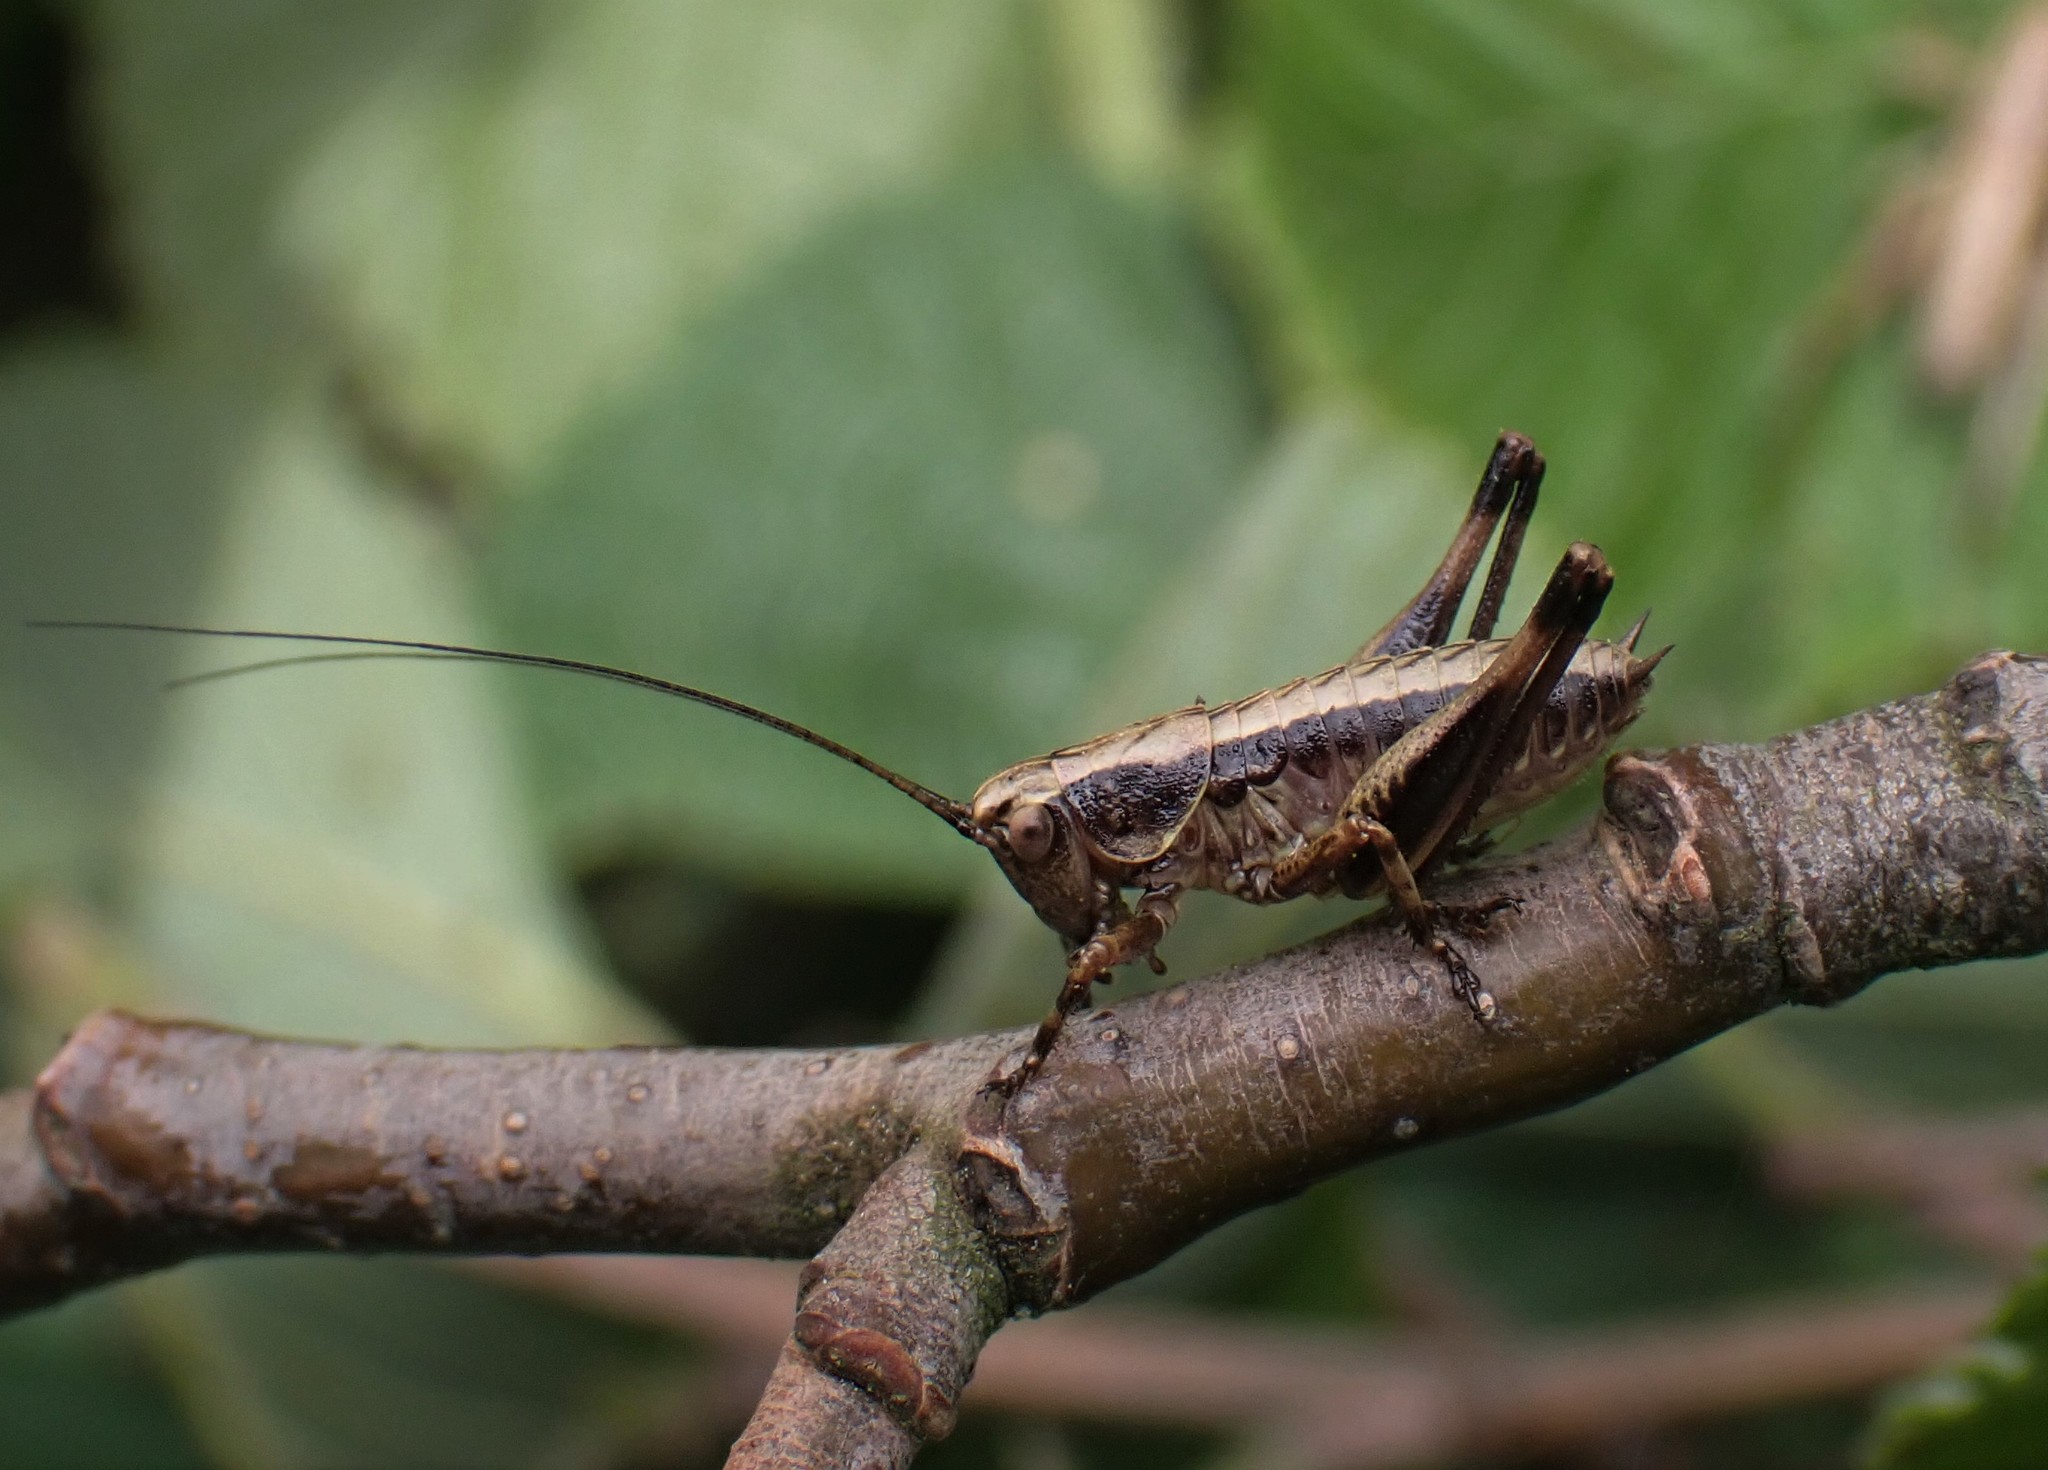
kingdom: Animalia
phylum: Arthropoda
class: Insecta
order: Orthoptera
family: Tettigoniidae
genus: Pholidoptera
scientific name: Pholidoptera griseoaptera
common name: Dark bush-cricket
